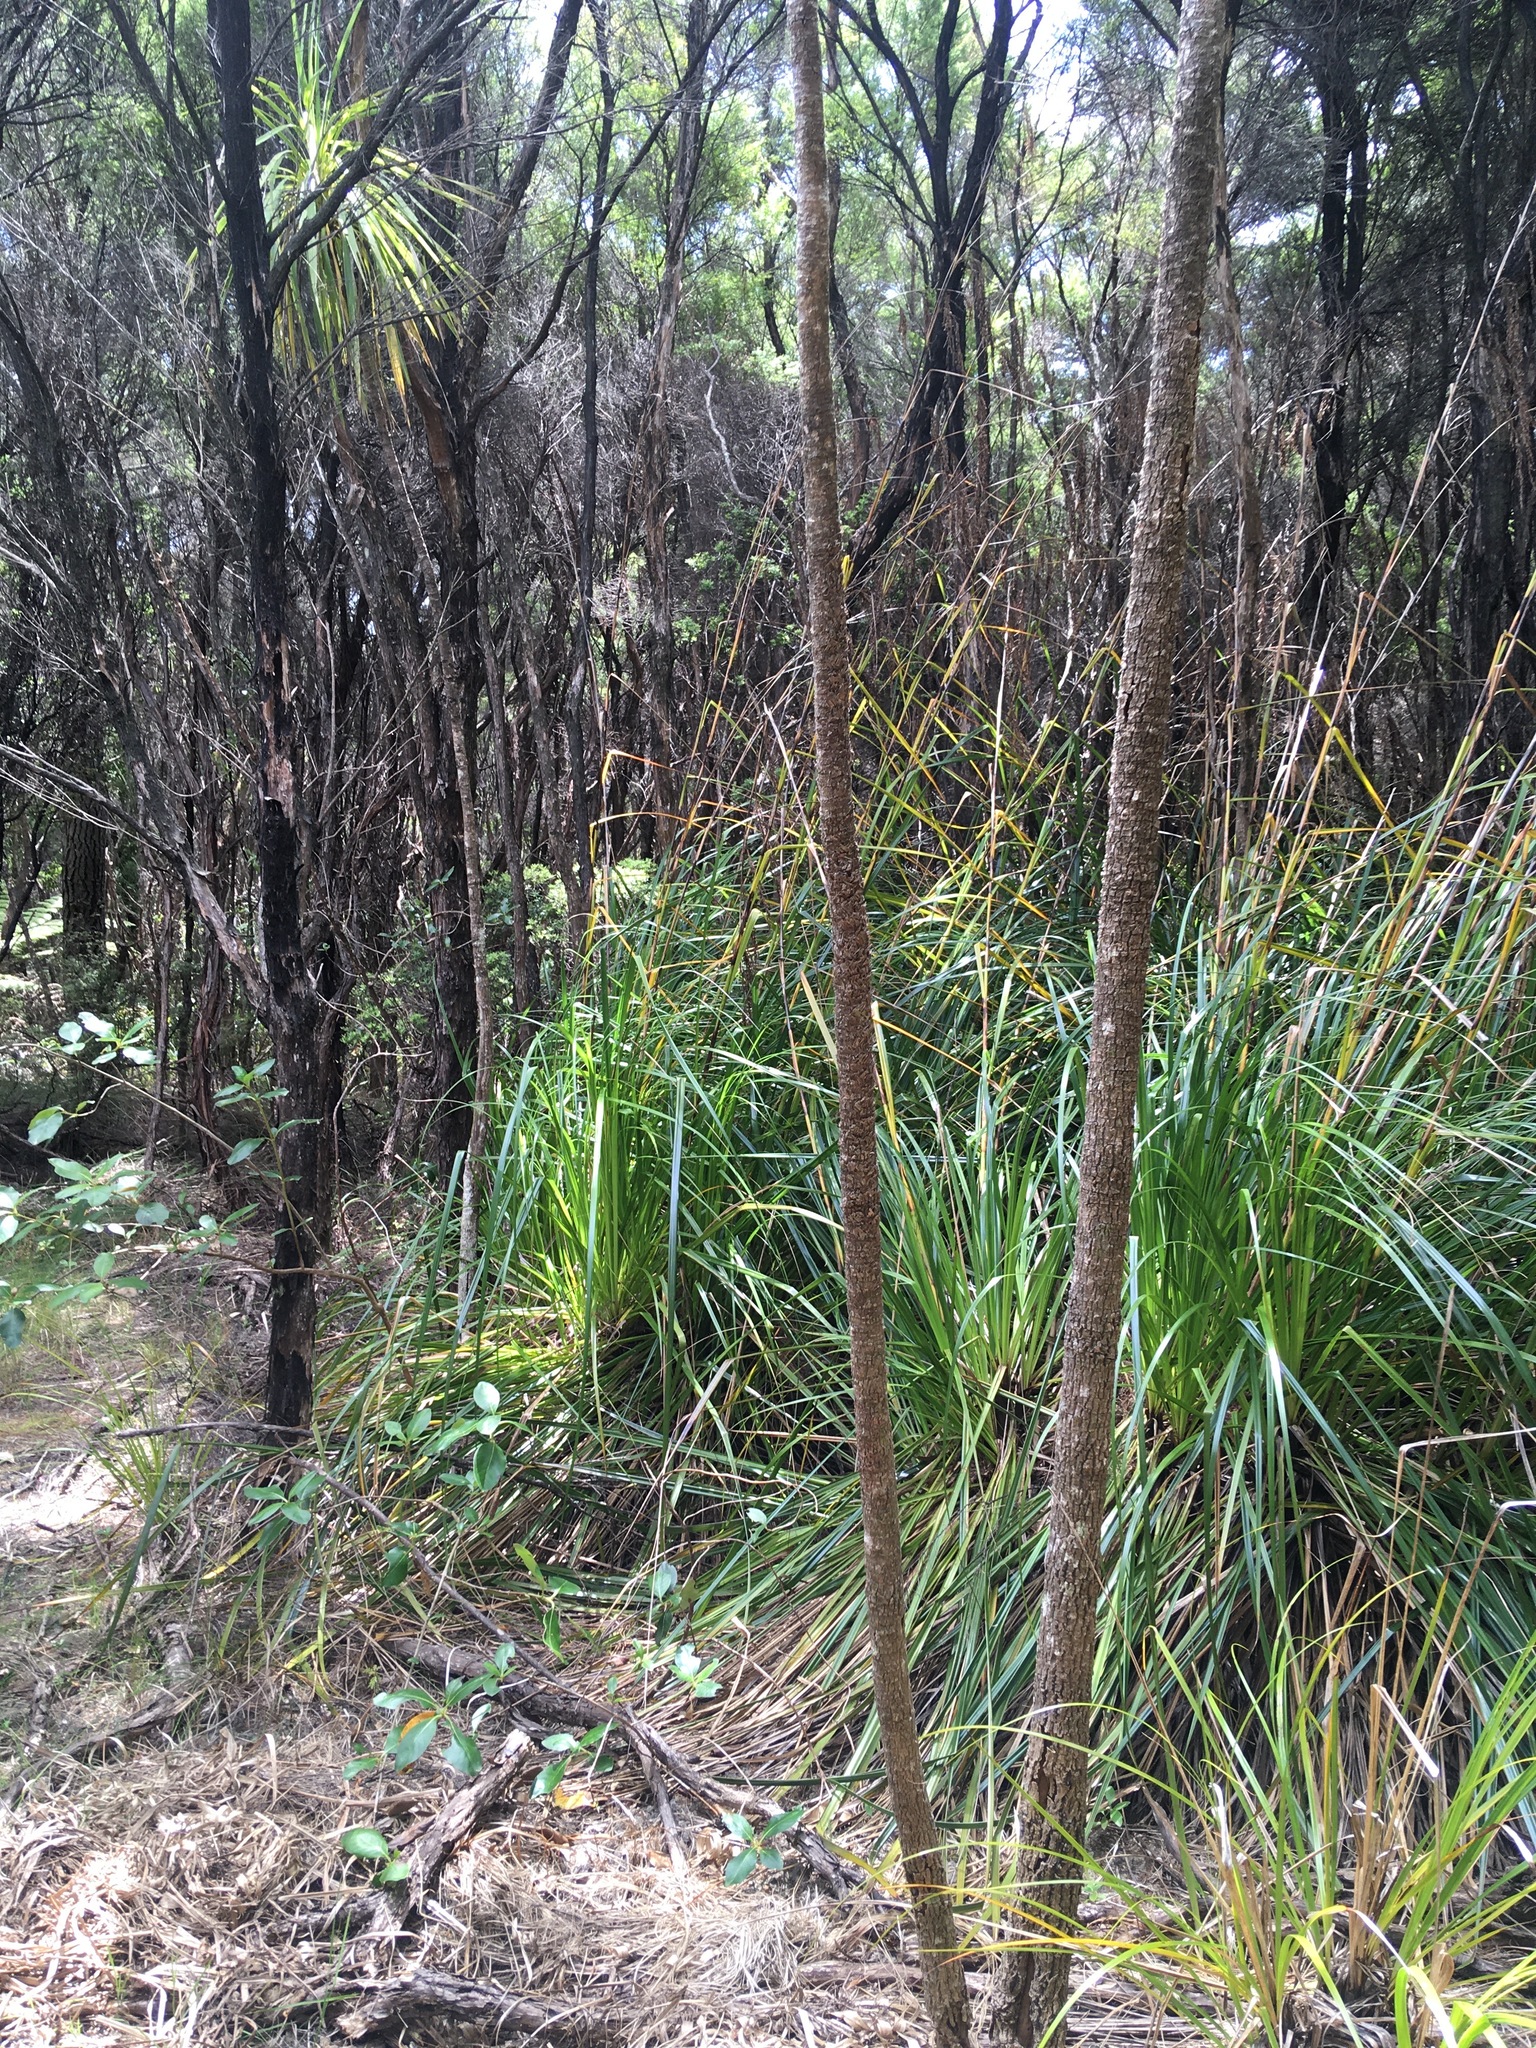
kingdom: Plantae
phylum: Tracheophyta
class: Liliopsida
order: Asparagales
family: Asparagaceae
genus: Cordyline
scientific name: Cordyline australis
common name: Cabbage-palm
